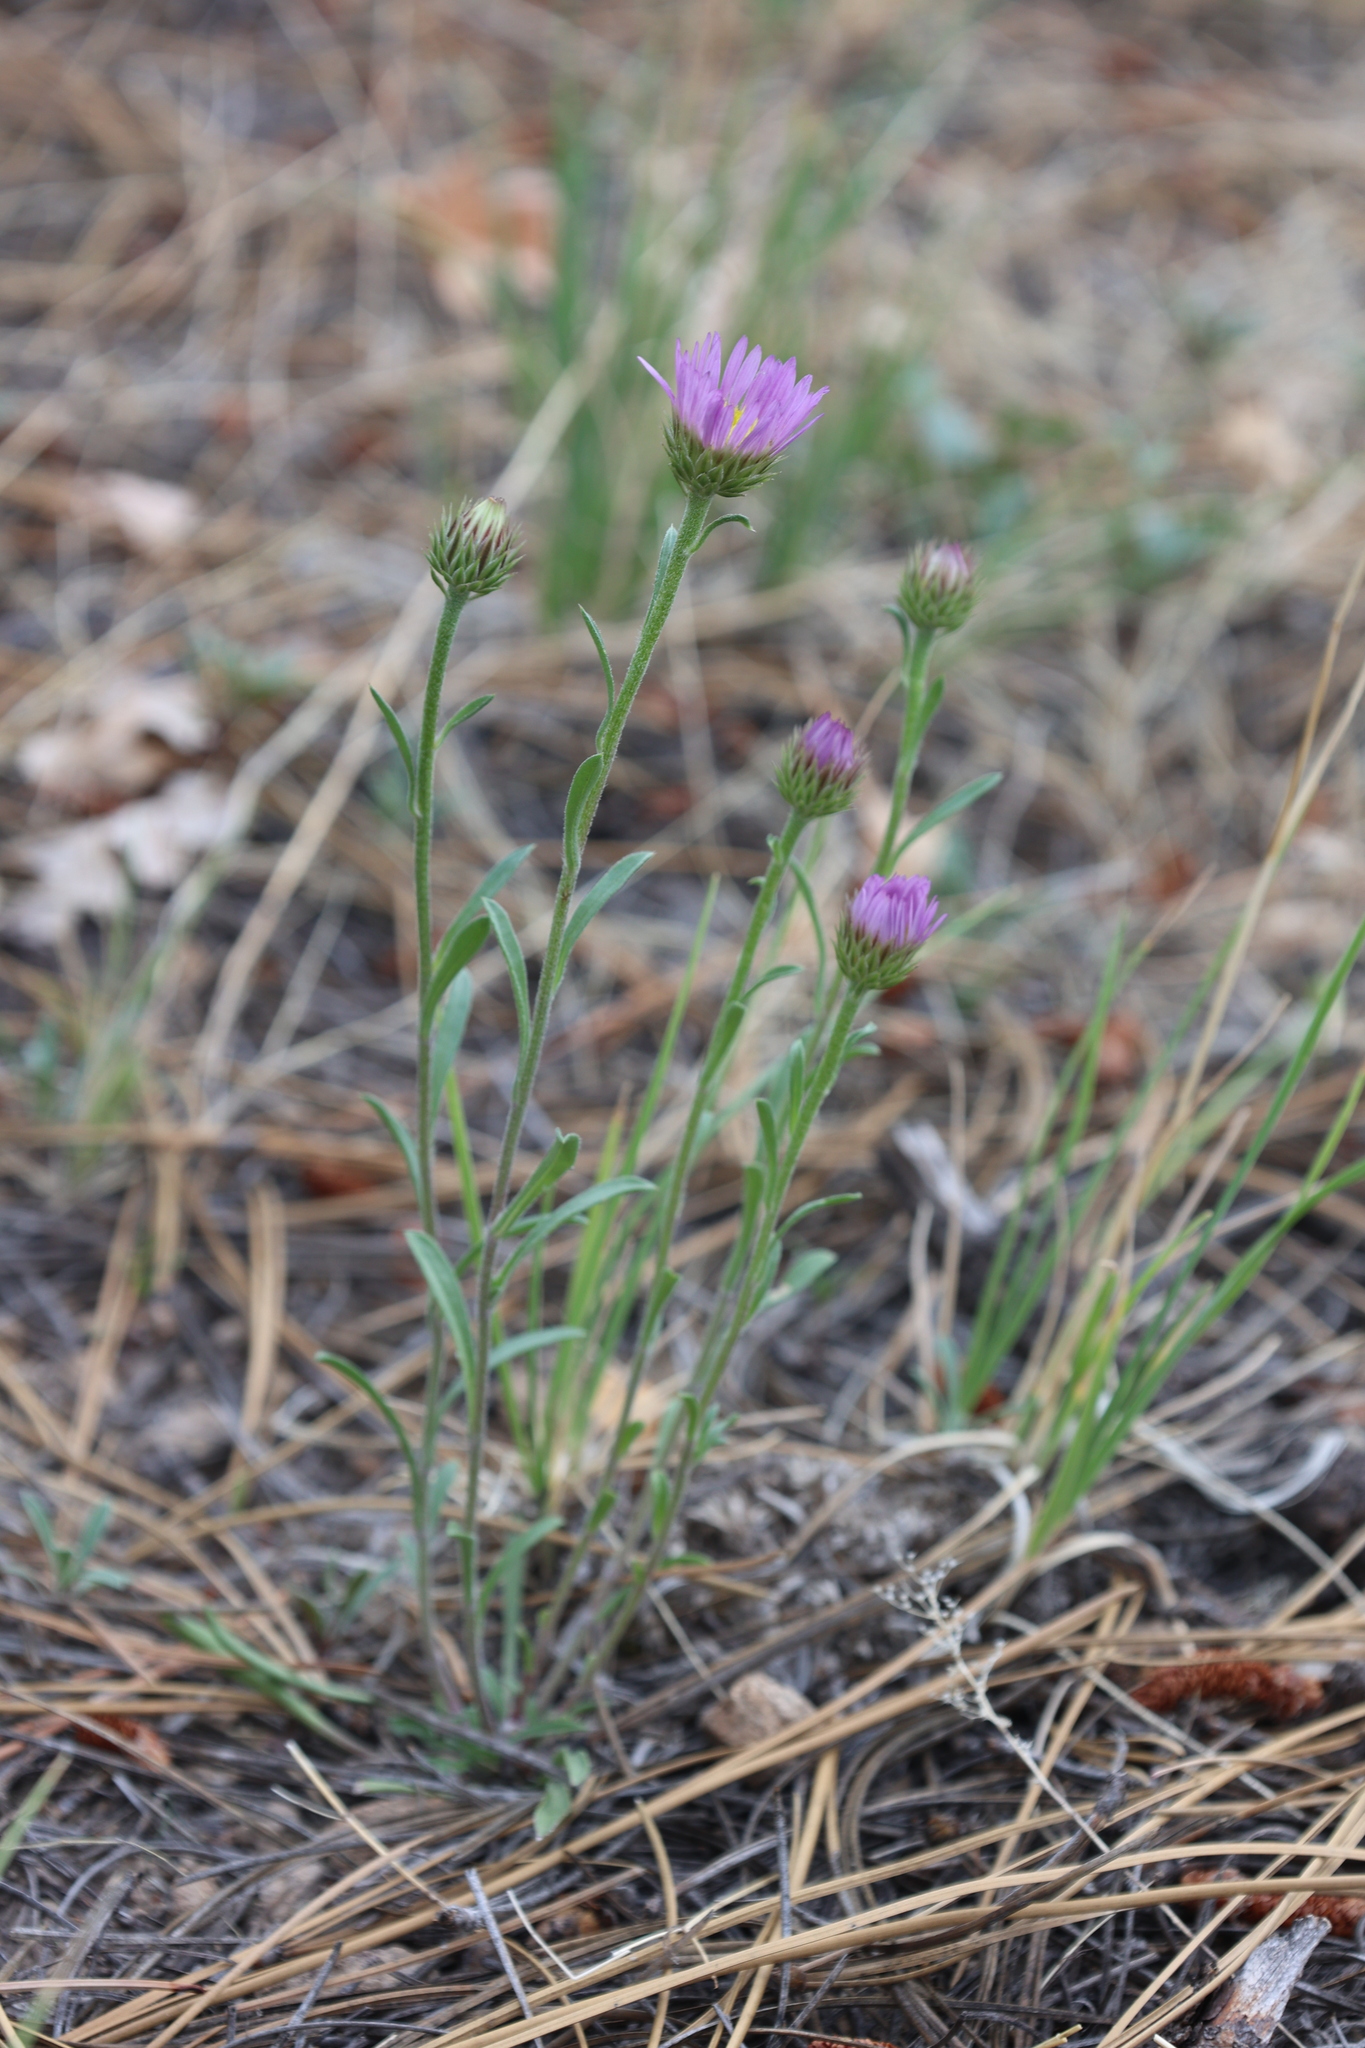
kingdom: Plantae
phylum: Tracheophyta
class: Magnoliopsida
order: Asterales
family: Asteraceae
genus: Townsendia
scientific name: Townsendia eximia
